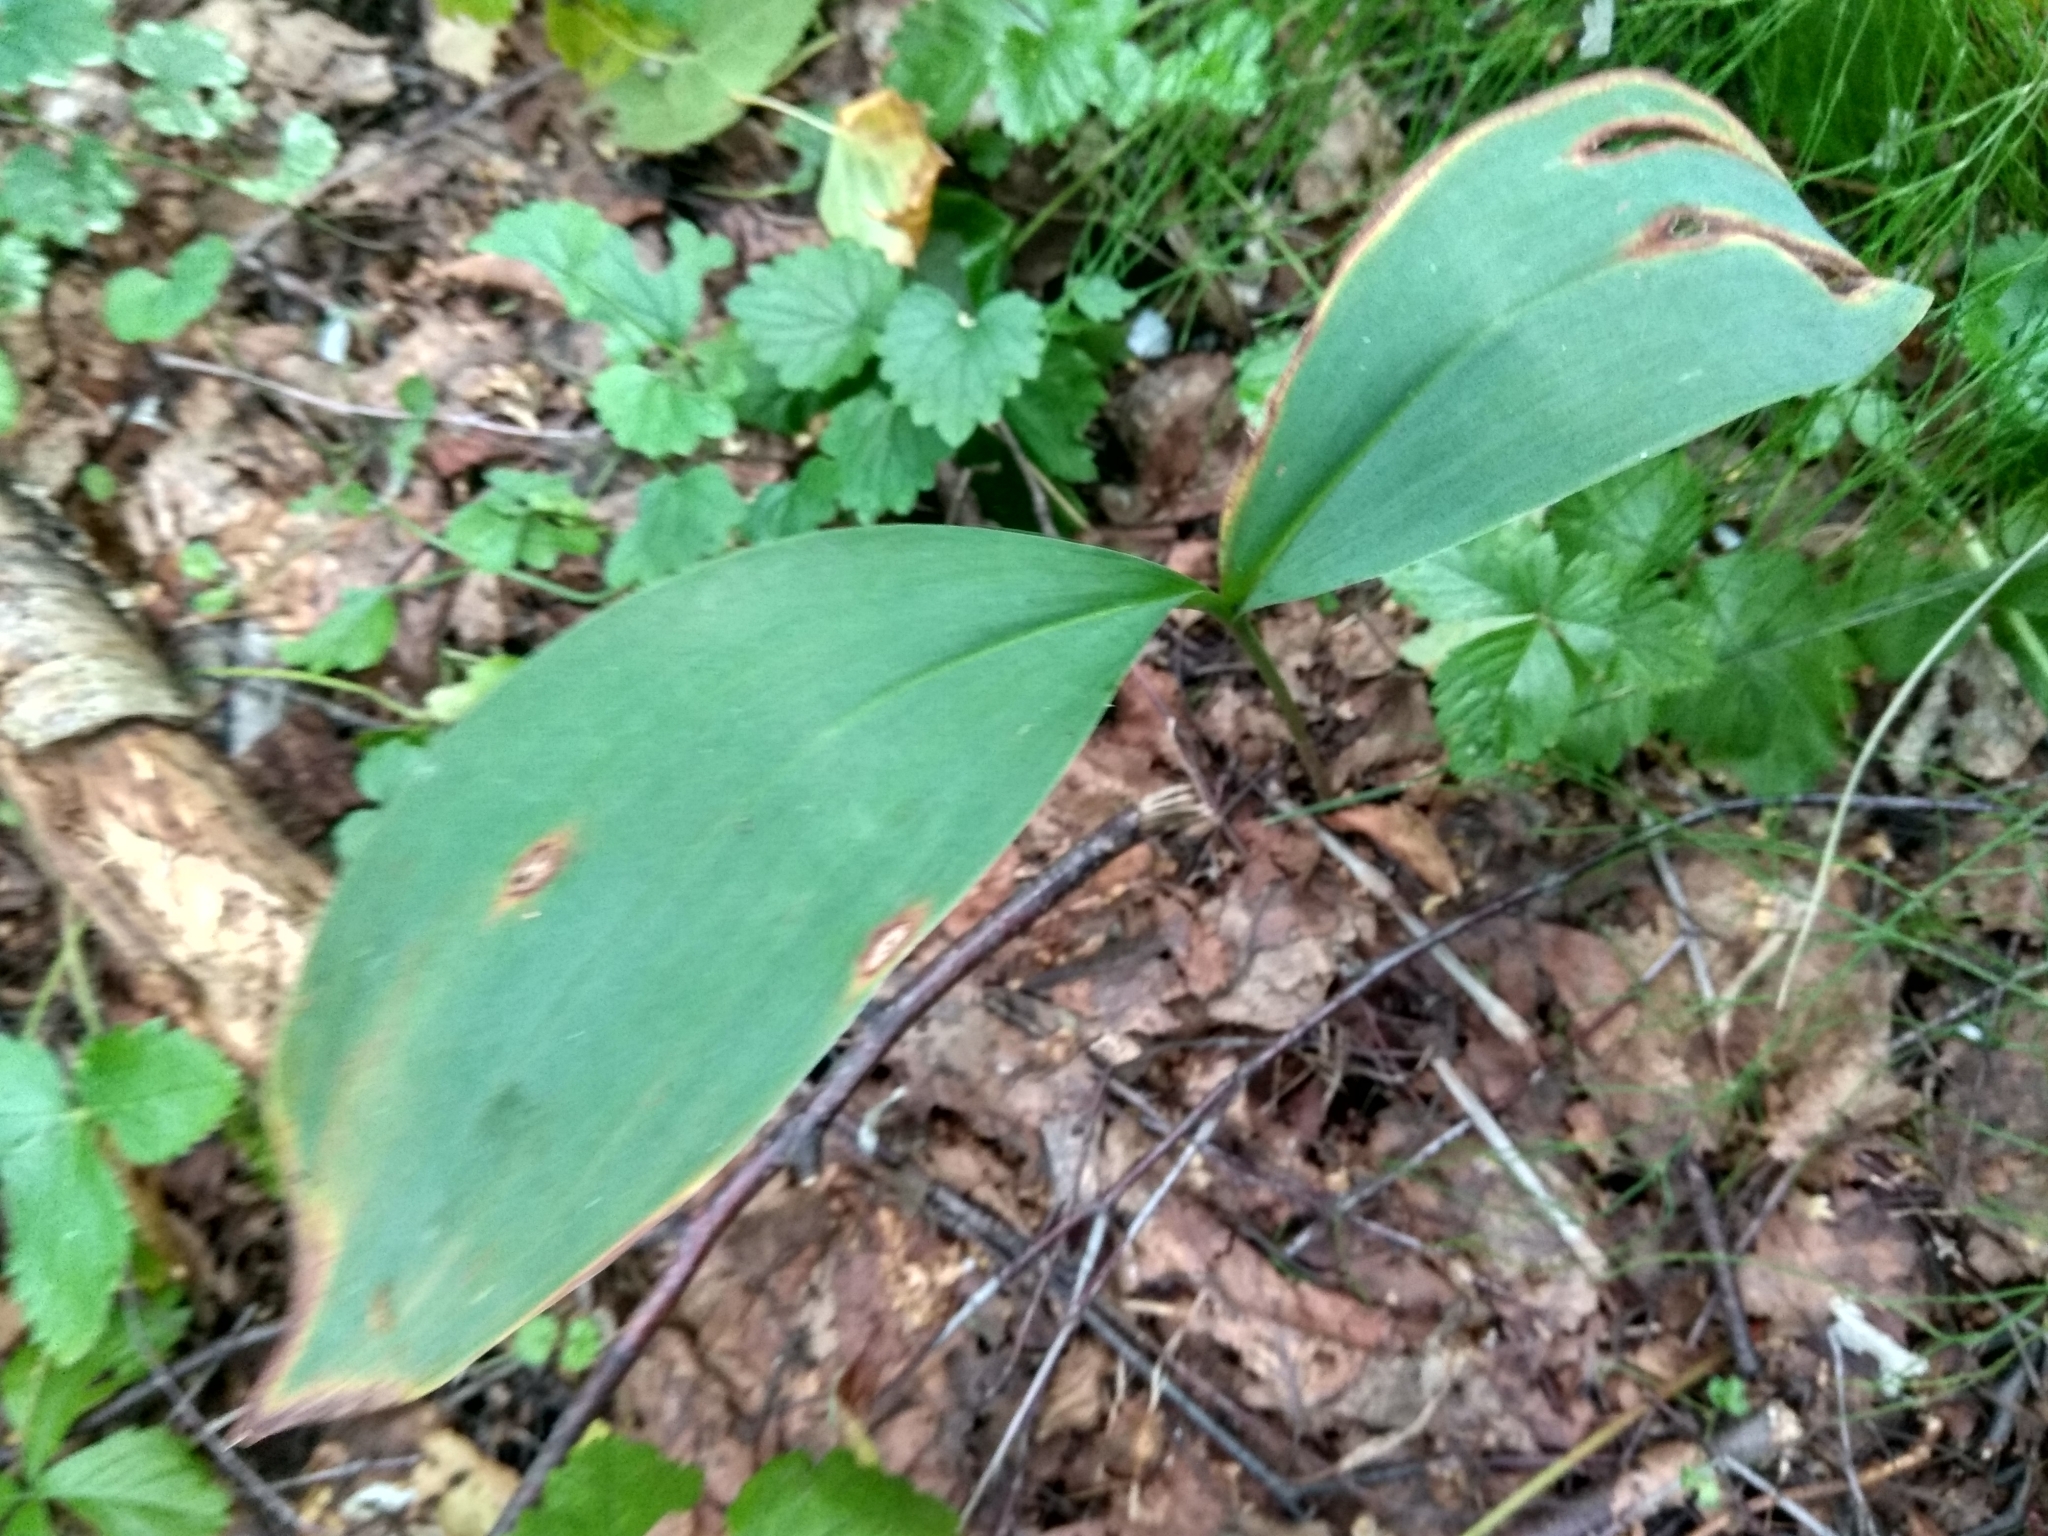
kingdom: Plantae
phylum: Tracheophyta
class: Liliopsida
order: Asparagales
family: Asparagaceae
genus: Convallaria
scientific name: Convallaria majalis
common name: Lily-of-the-valley
